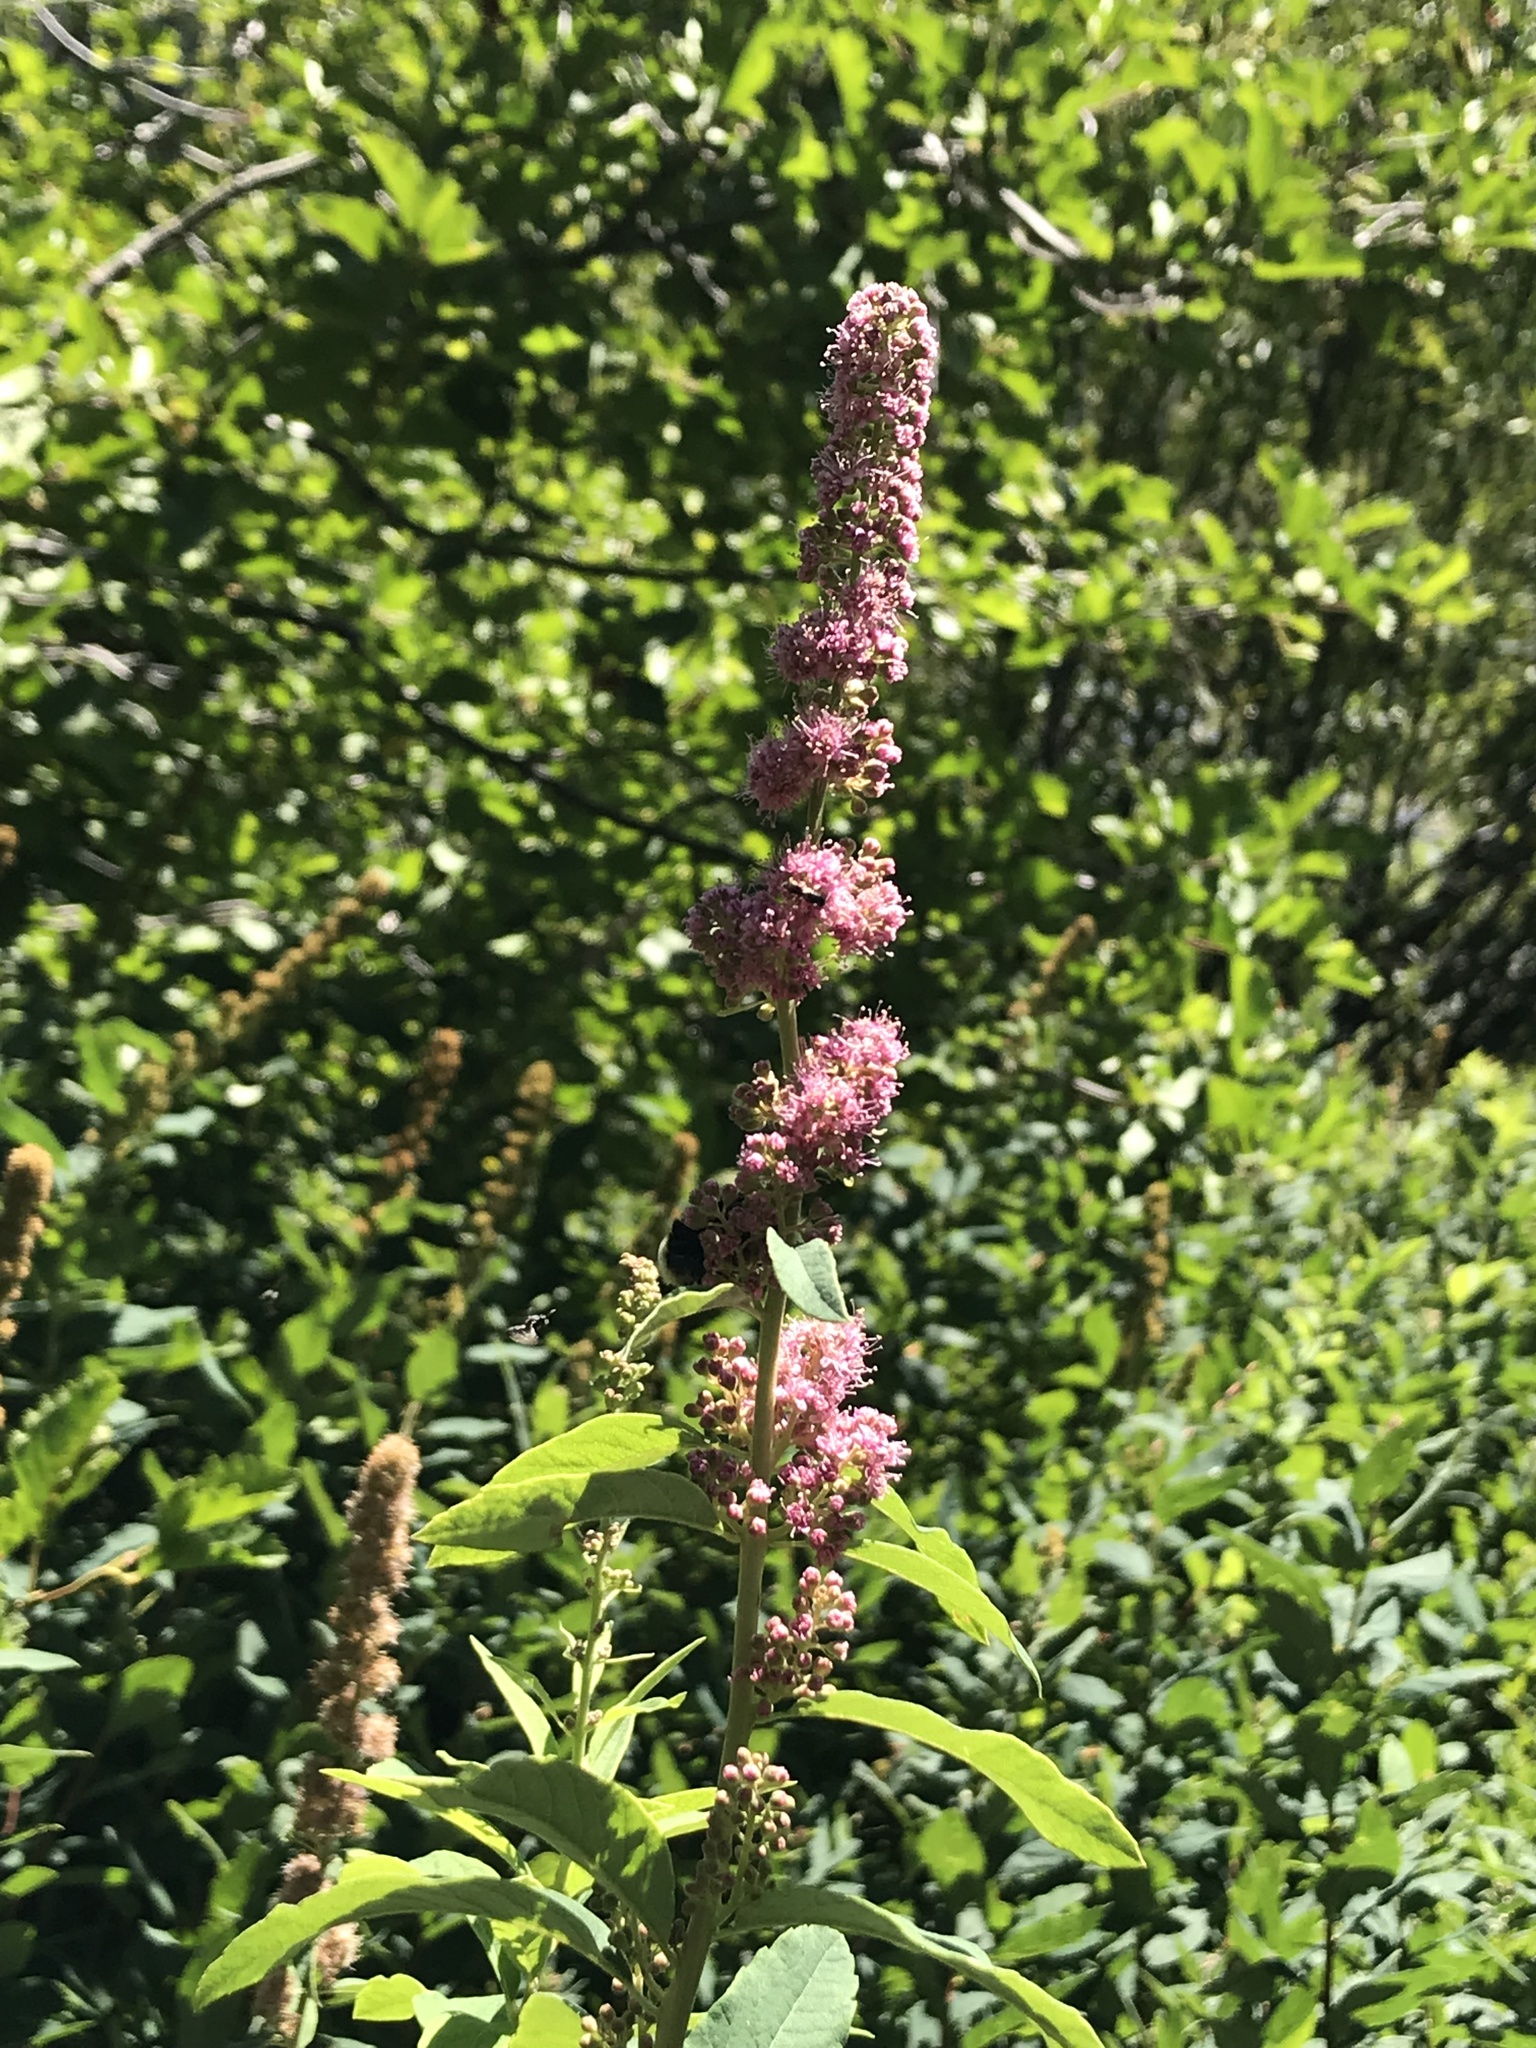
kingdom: Plantae
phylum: Tracheophyta
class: Magnoliopsida
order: Rosales
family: Rosaceae
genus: Spiraea
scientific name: Spiraea douglasii
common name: Steeplebush
